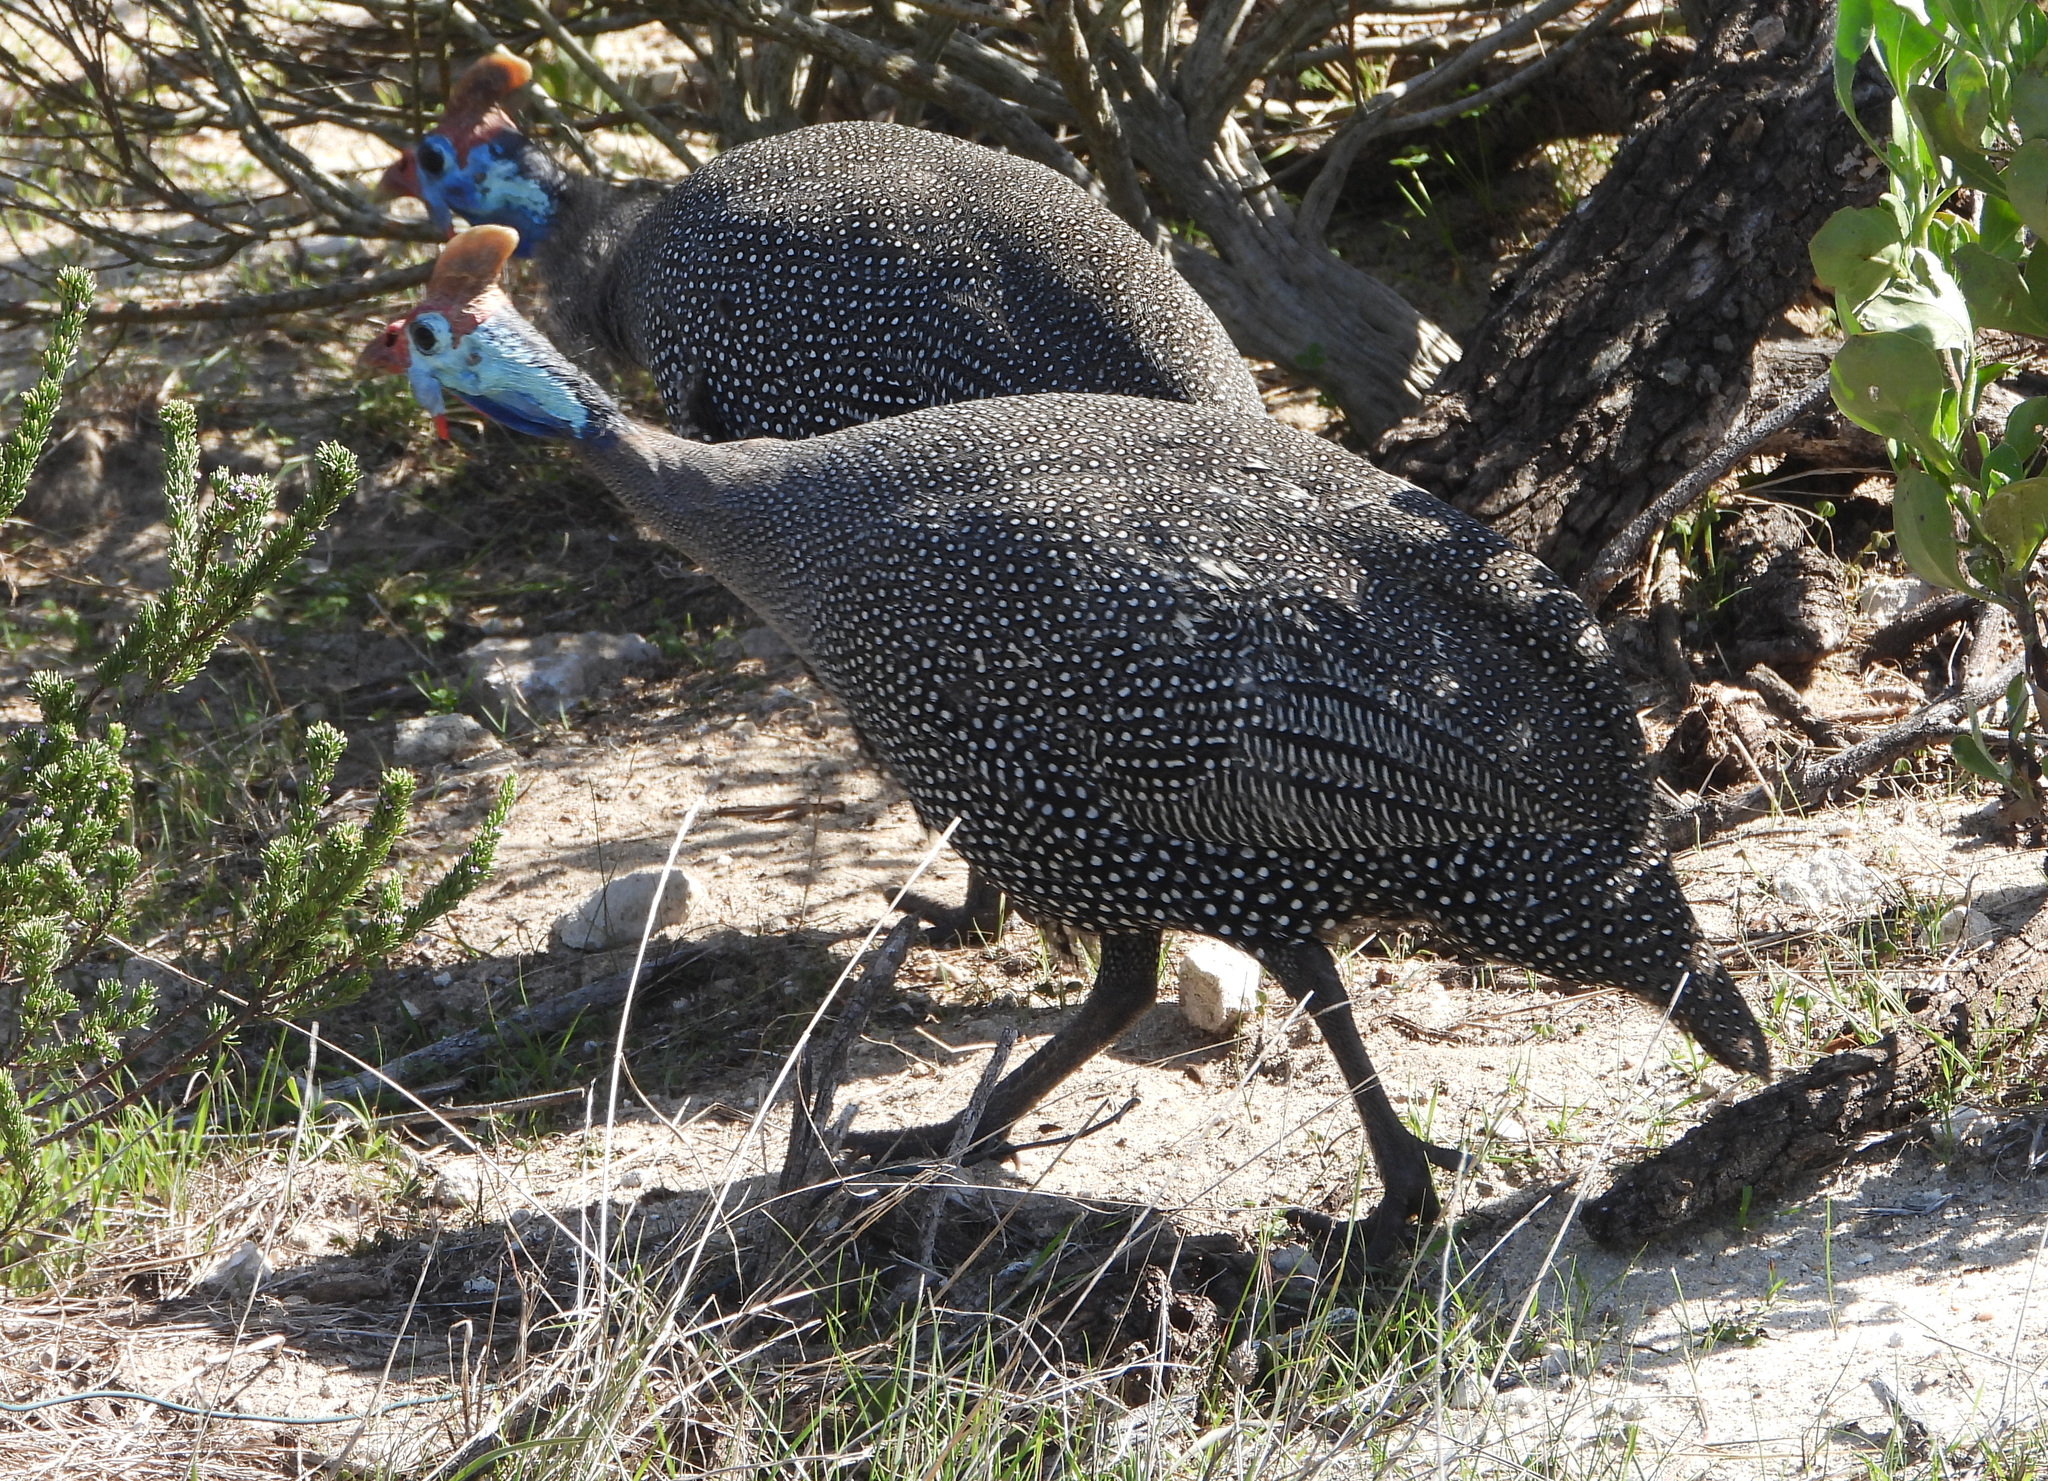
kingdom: Animalia
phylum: Chordata
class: Aves
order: Galliformes
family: Numididae
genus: Numida
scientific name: Numida meleagris
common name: Helmeted guineafowl
